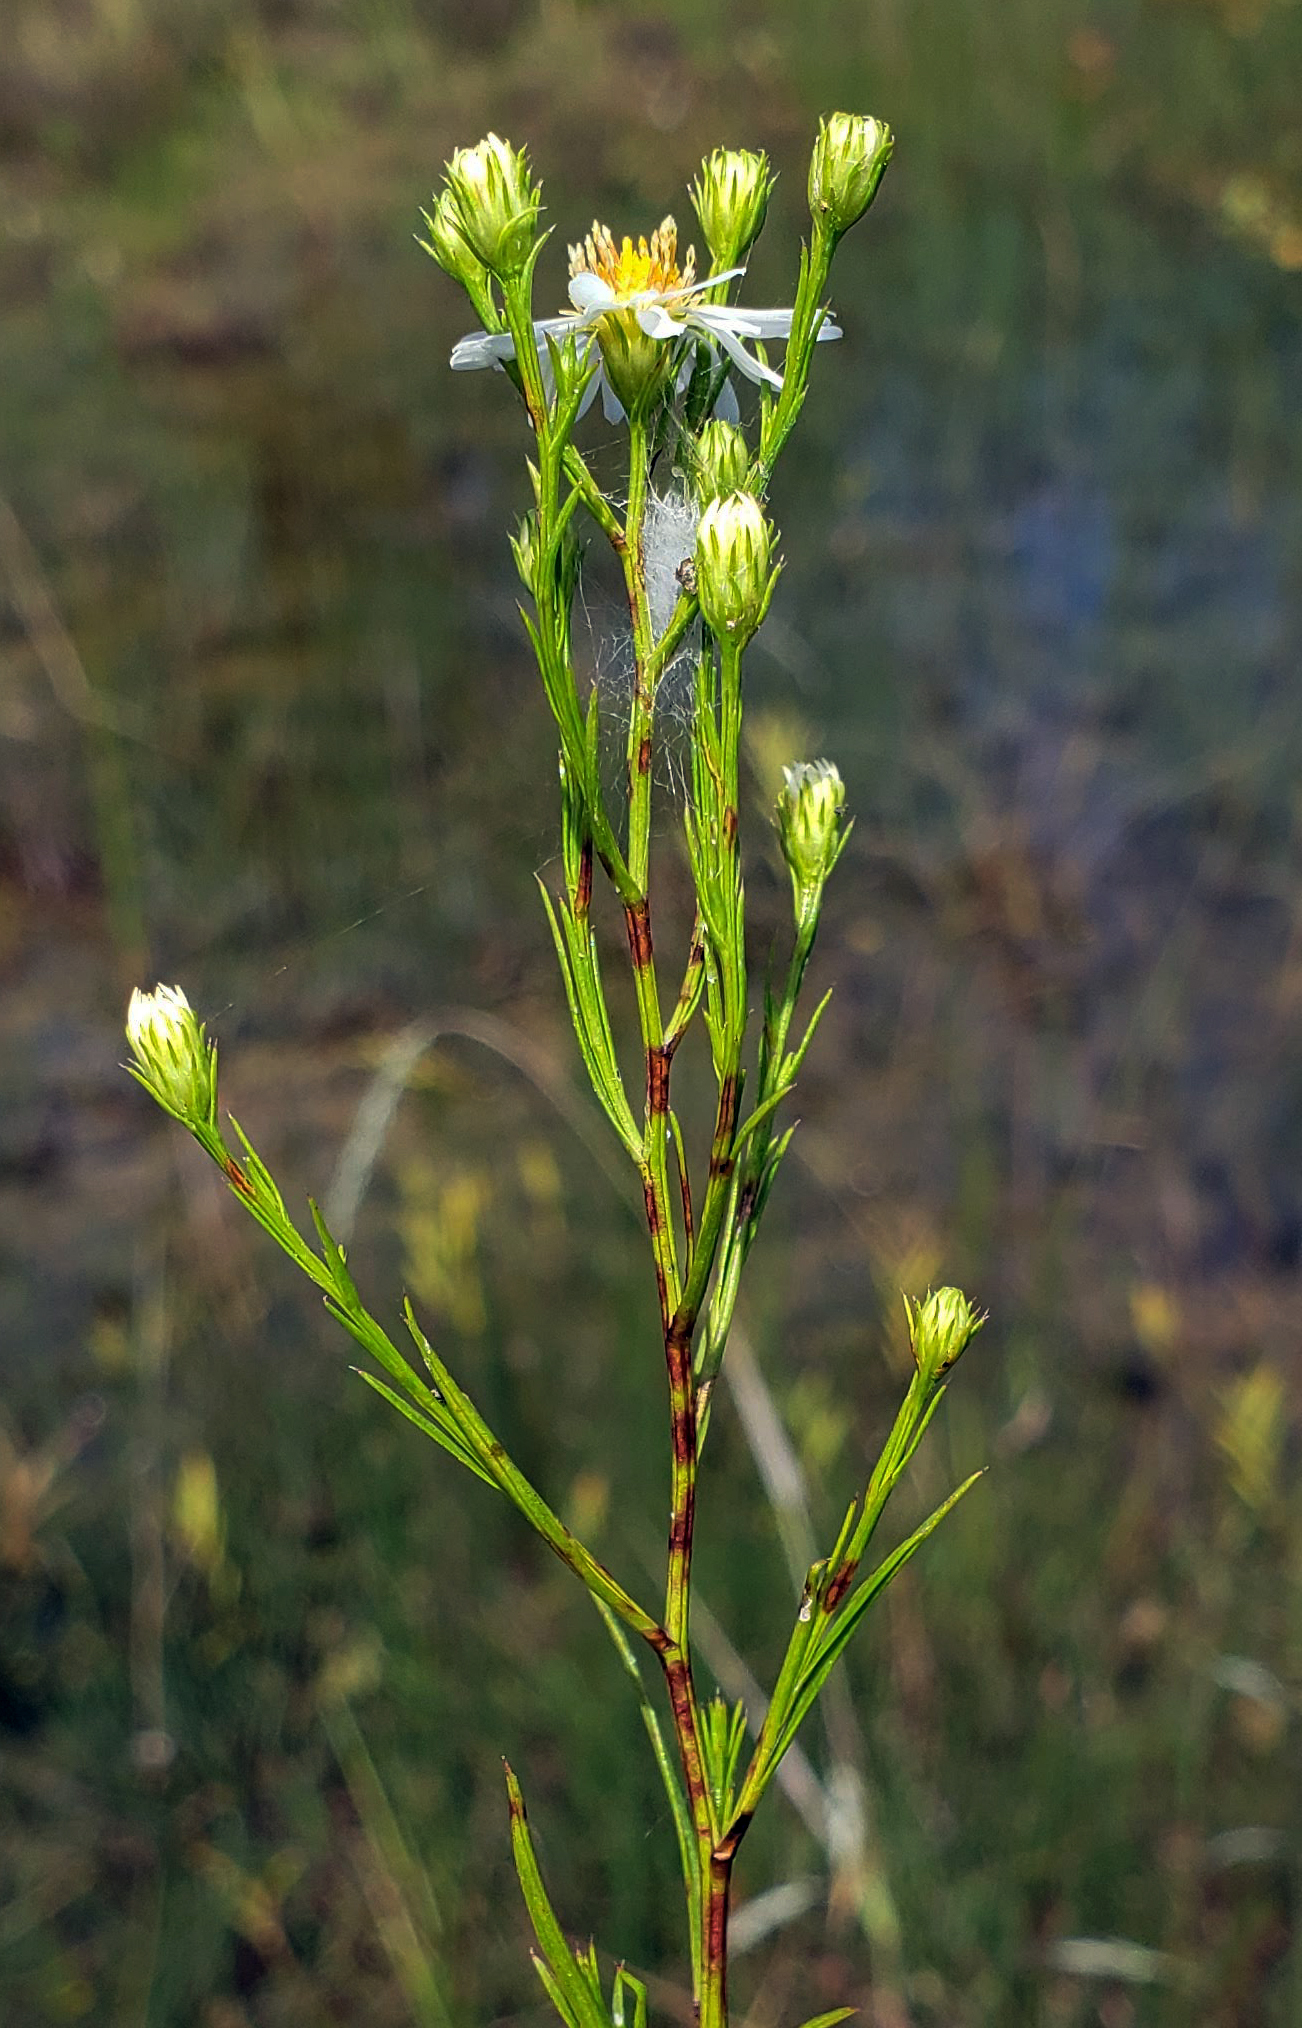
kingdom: Plantae
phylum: Tracheophyta
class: Magnoliopsida
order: Asterales
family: Asteraceae
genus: Symphyotrichum
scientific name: Symphyotrichum lanceolatum
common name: Panicled aster
